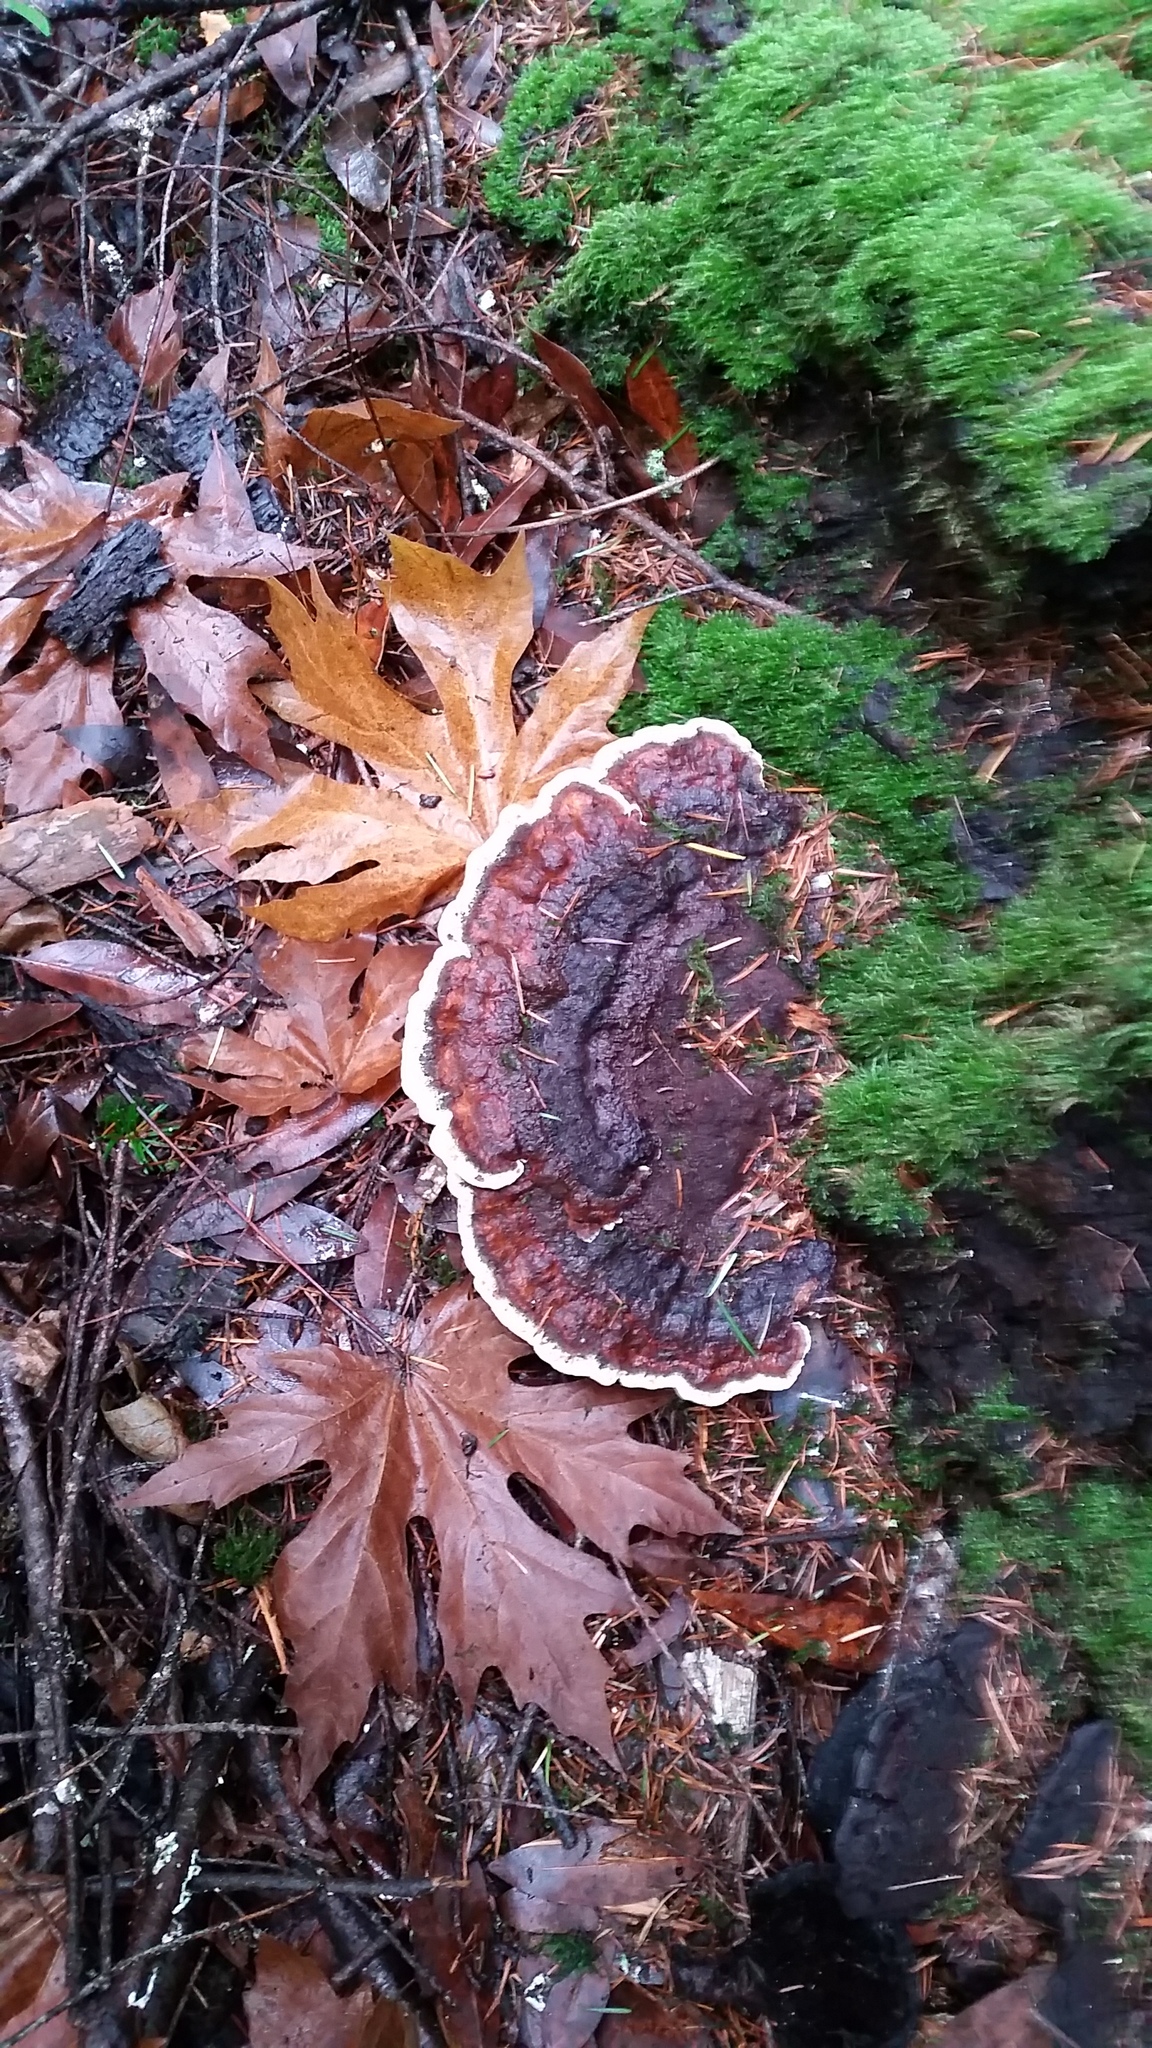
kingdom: Fungi
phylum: Basidiomycota
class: Agaricomycetes
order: Polyporales
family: Laetiporaceae
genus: Phaeolus
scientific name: Phaeolus schweinitzii
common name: Dyer's mazegill
